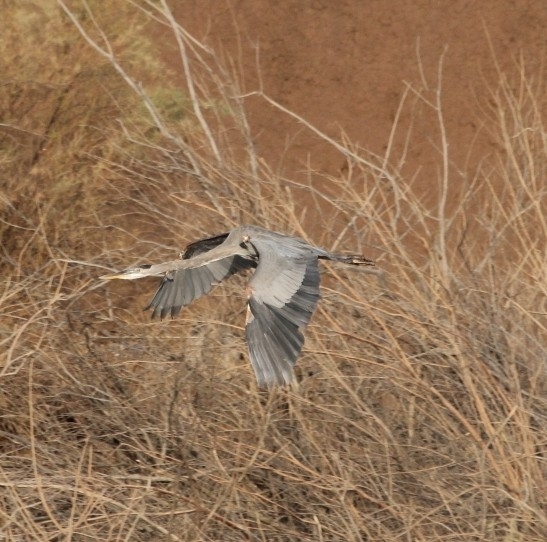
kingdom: Animalia
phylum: Chordata
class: Aves
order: Pelecaniformes
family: Ardeidae
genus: Ardea
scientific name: Ardea herodias
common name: Great blue heron
